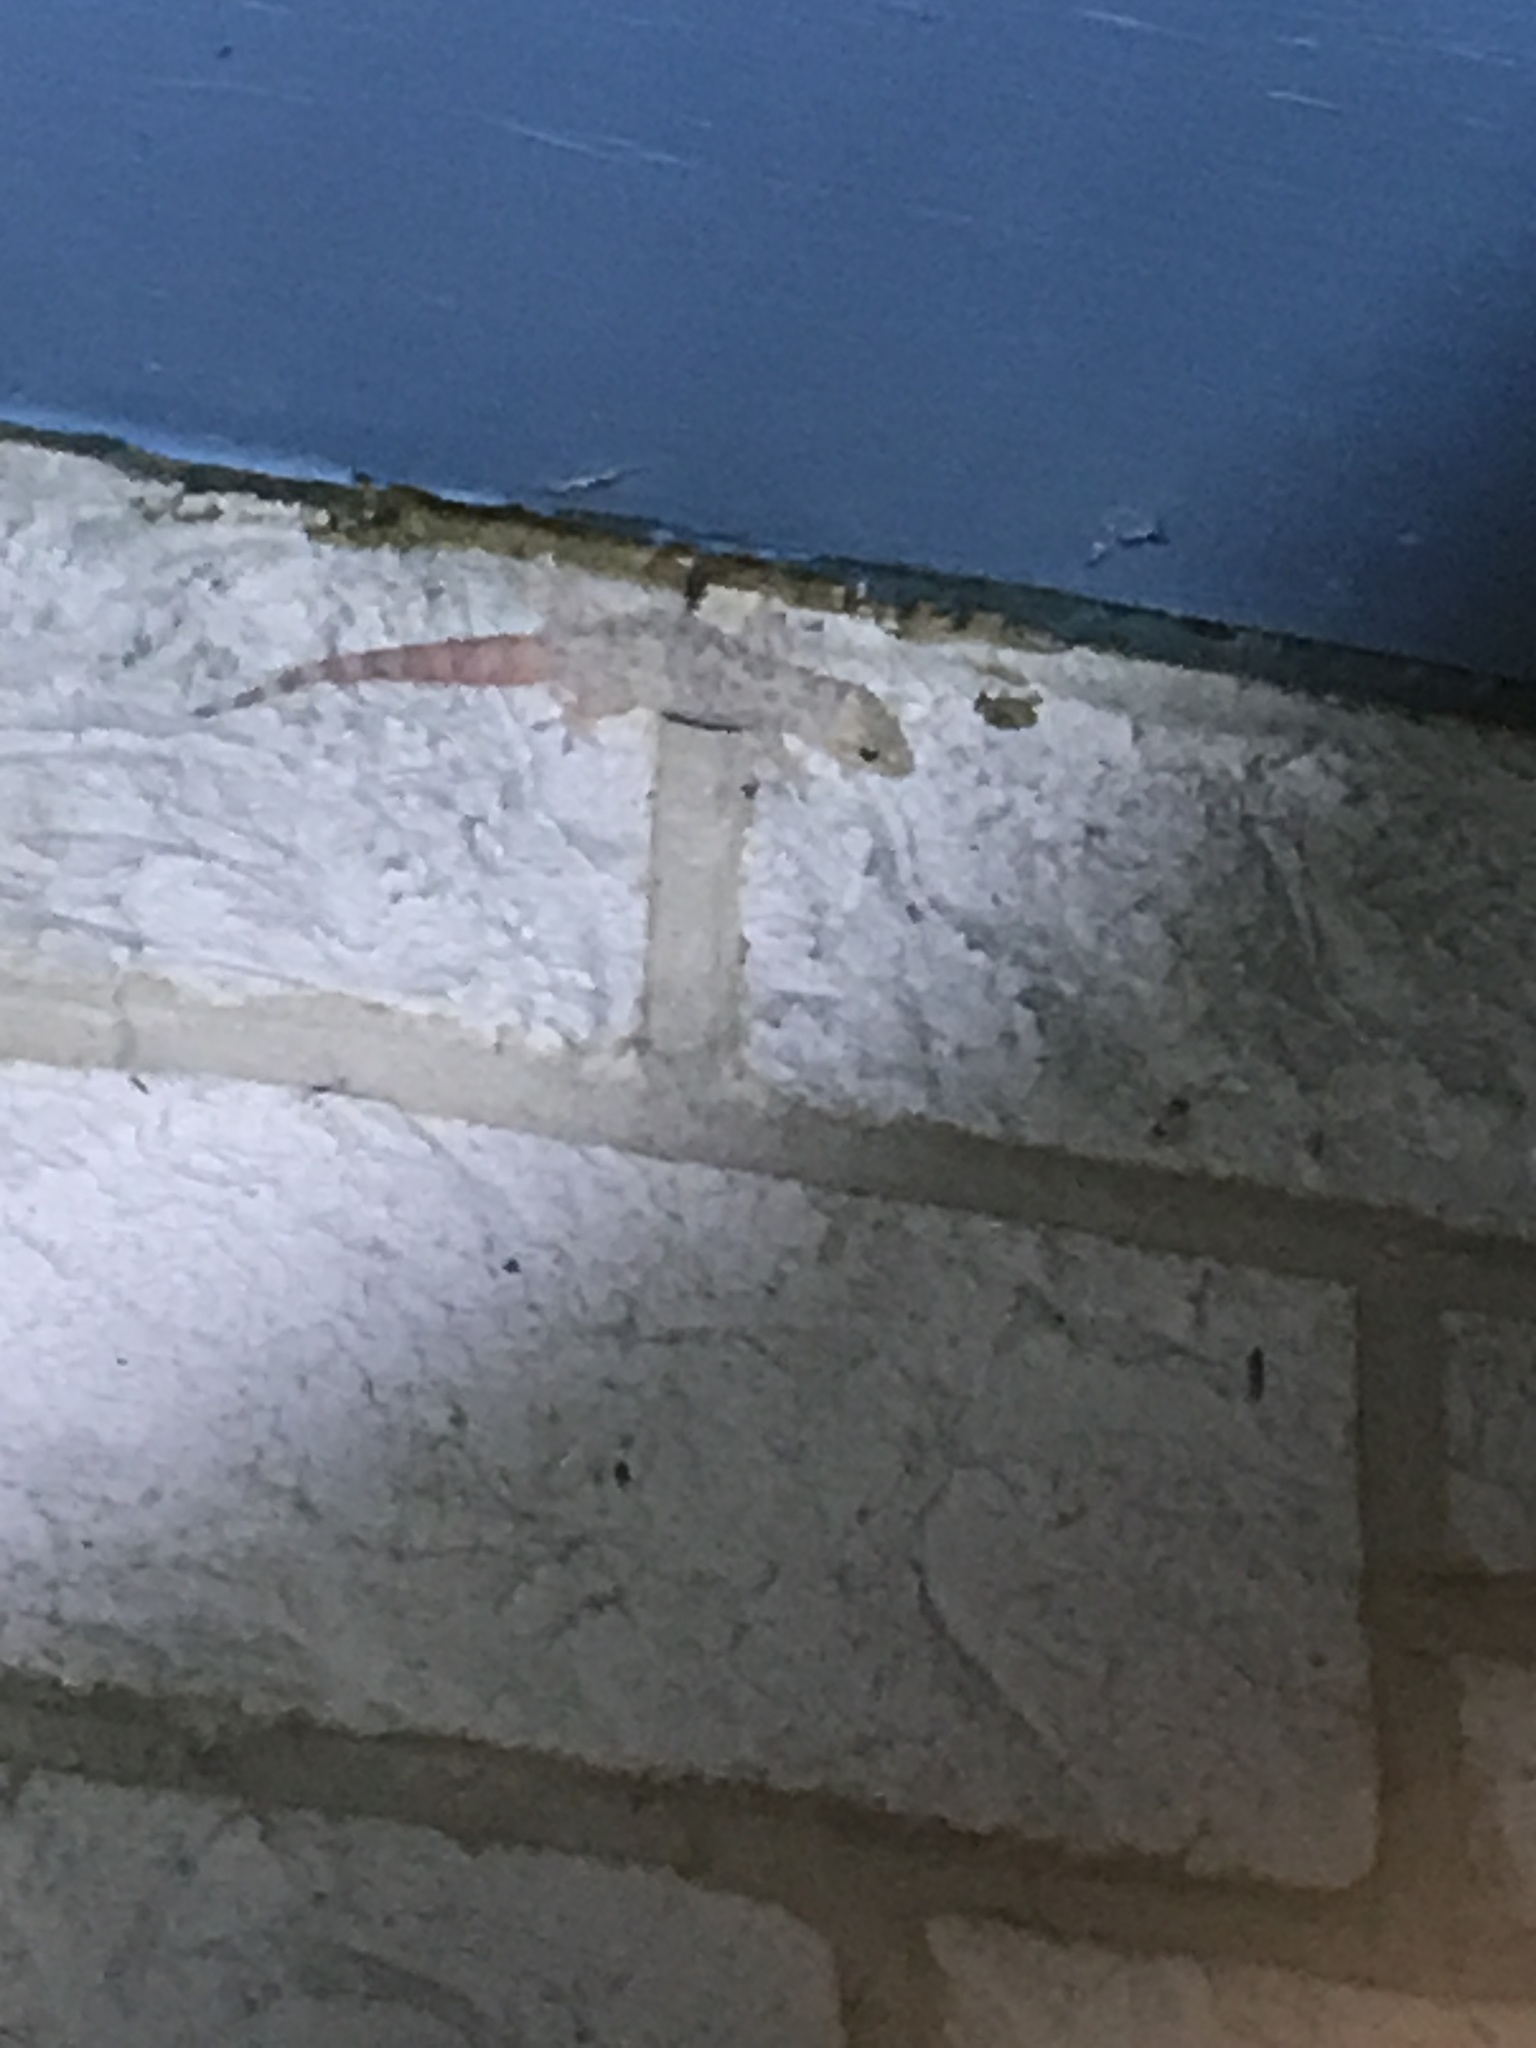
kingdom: Animalia
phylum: Chordata
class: Squamata
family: Gekkonidae
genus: Hemidactylus
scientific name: Hemidactylus turcicus
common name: Turkish gecko
